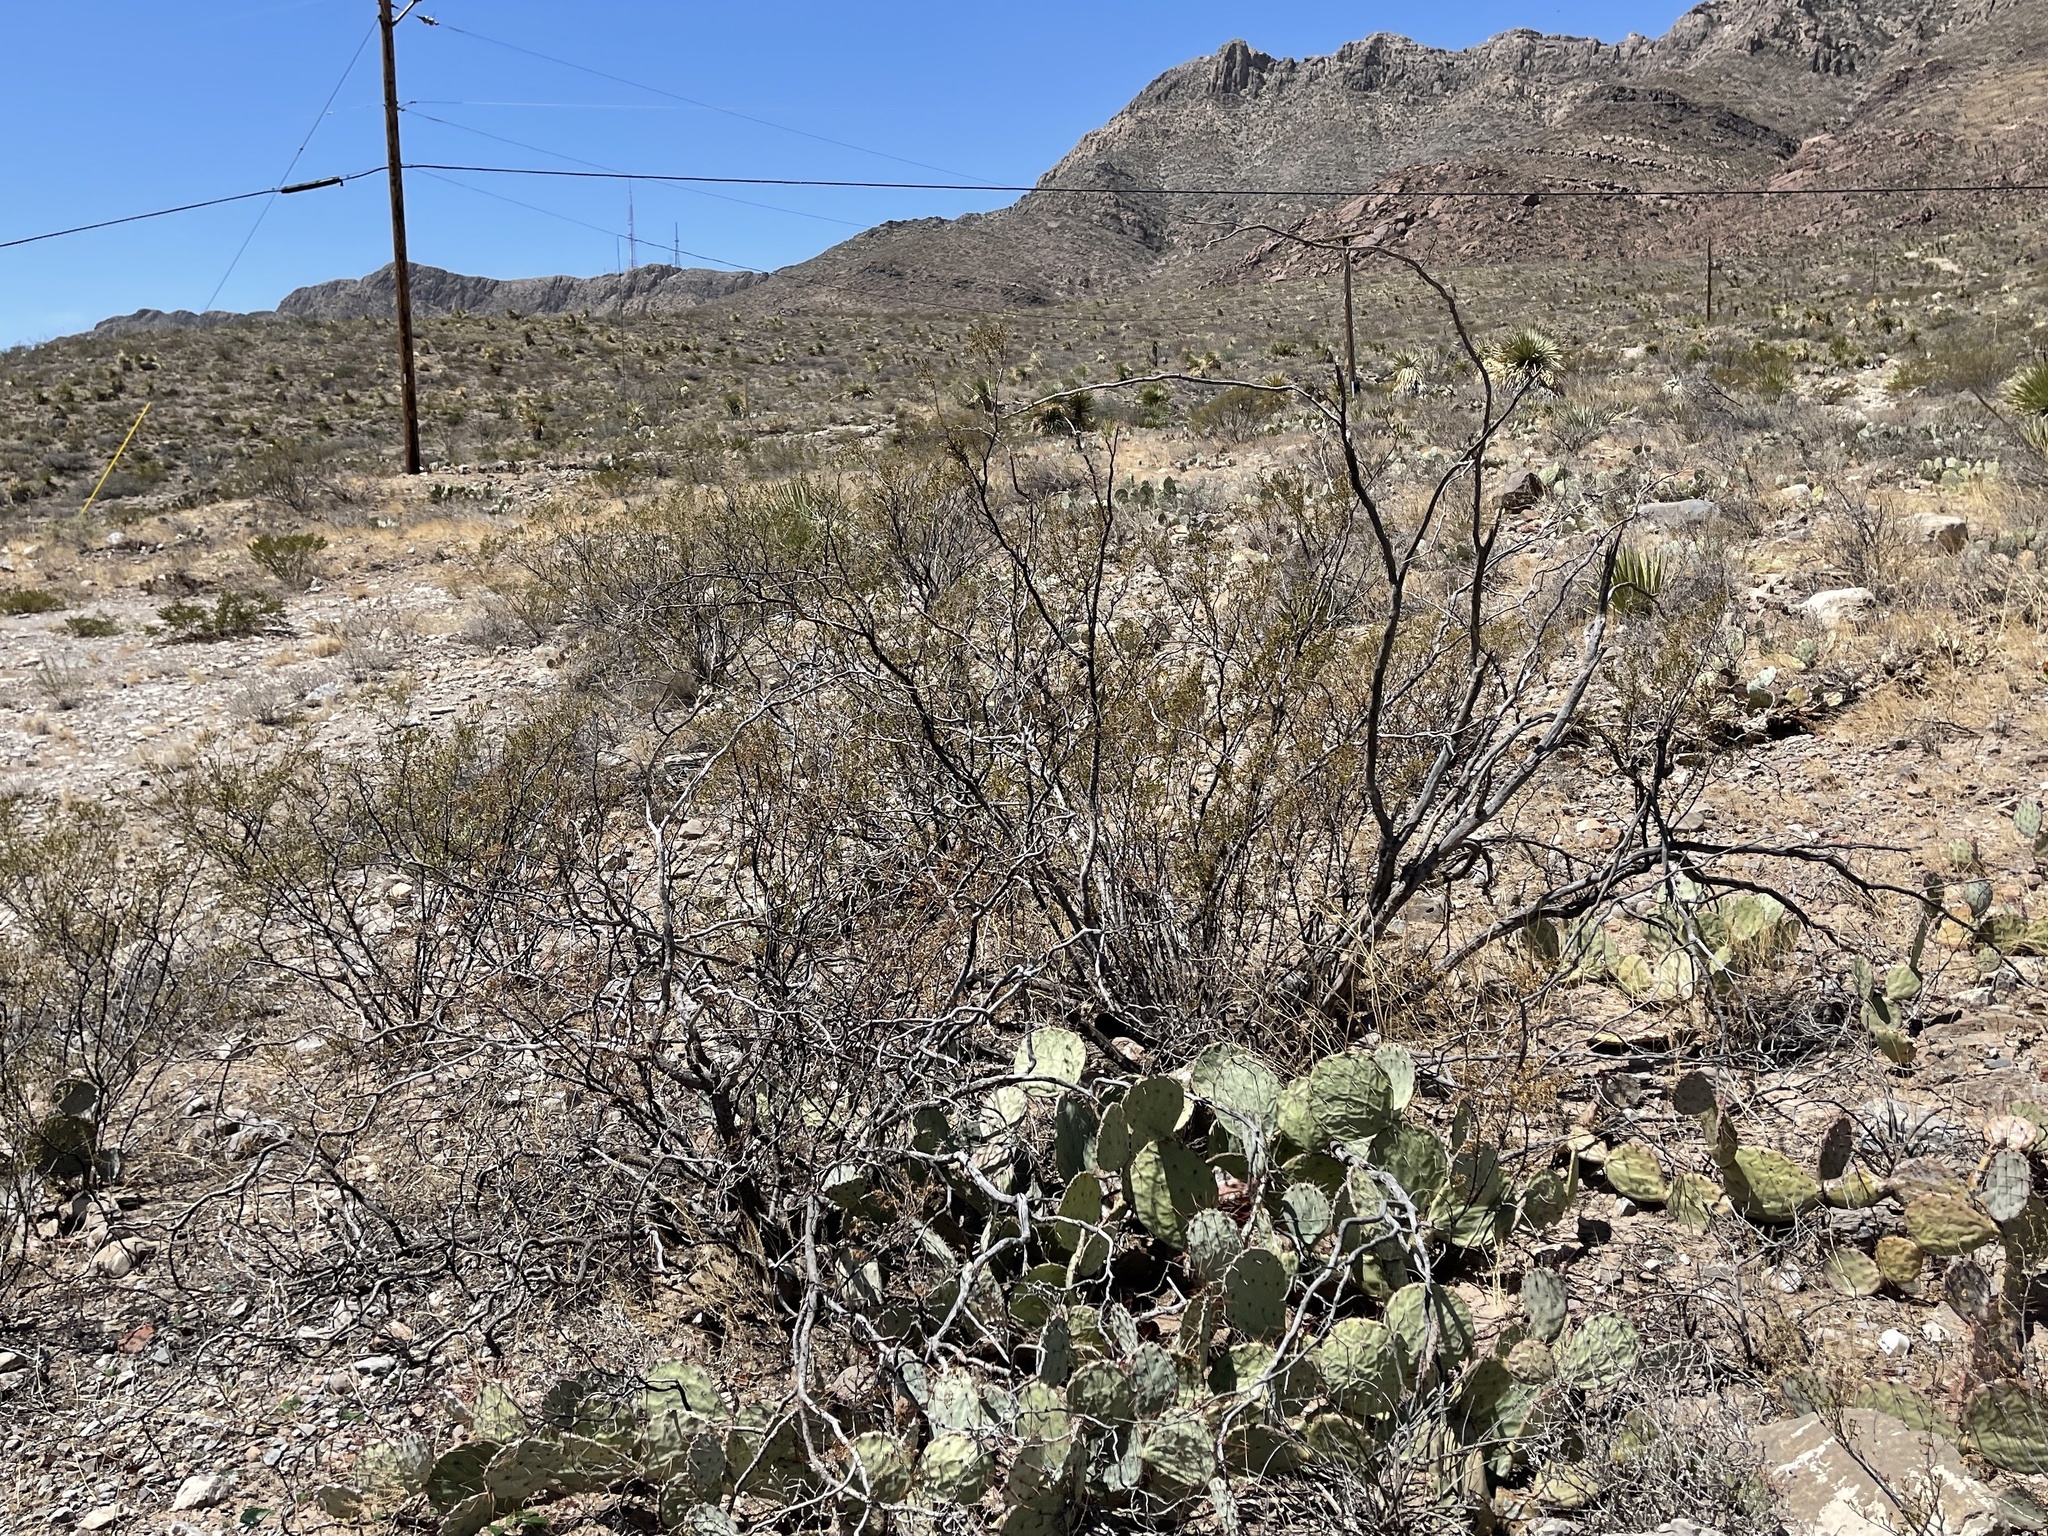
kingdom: Plantae
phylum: Tracheophyta
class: Magnoliopsida
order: Zygophyllales
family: Zygophyllaceae
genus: Larrea
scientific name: Larrea tridentata
